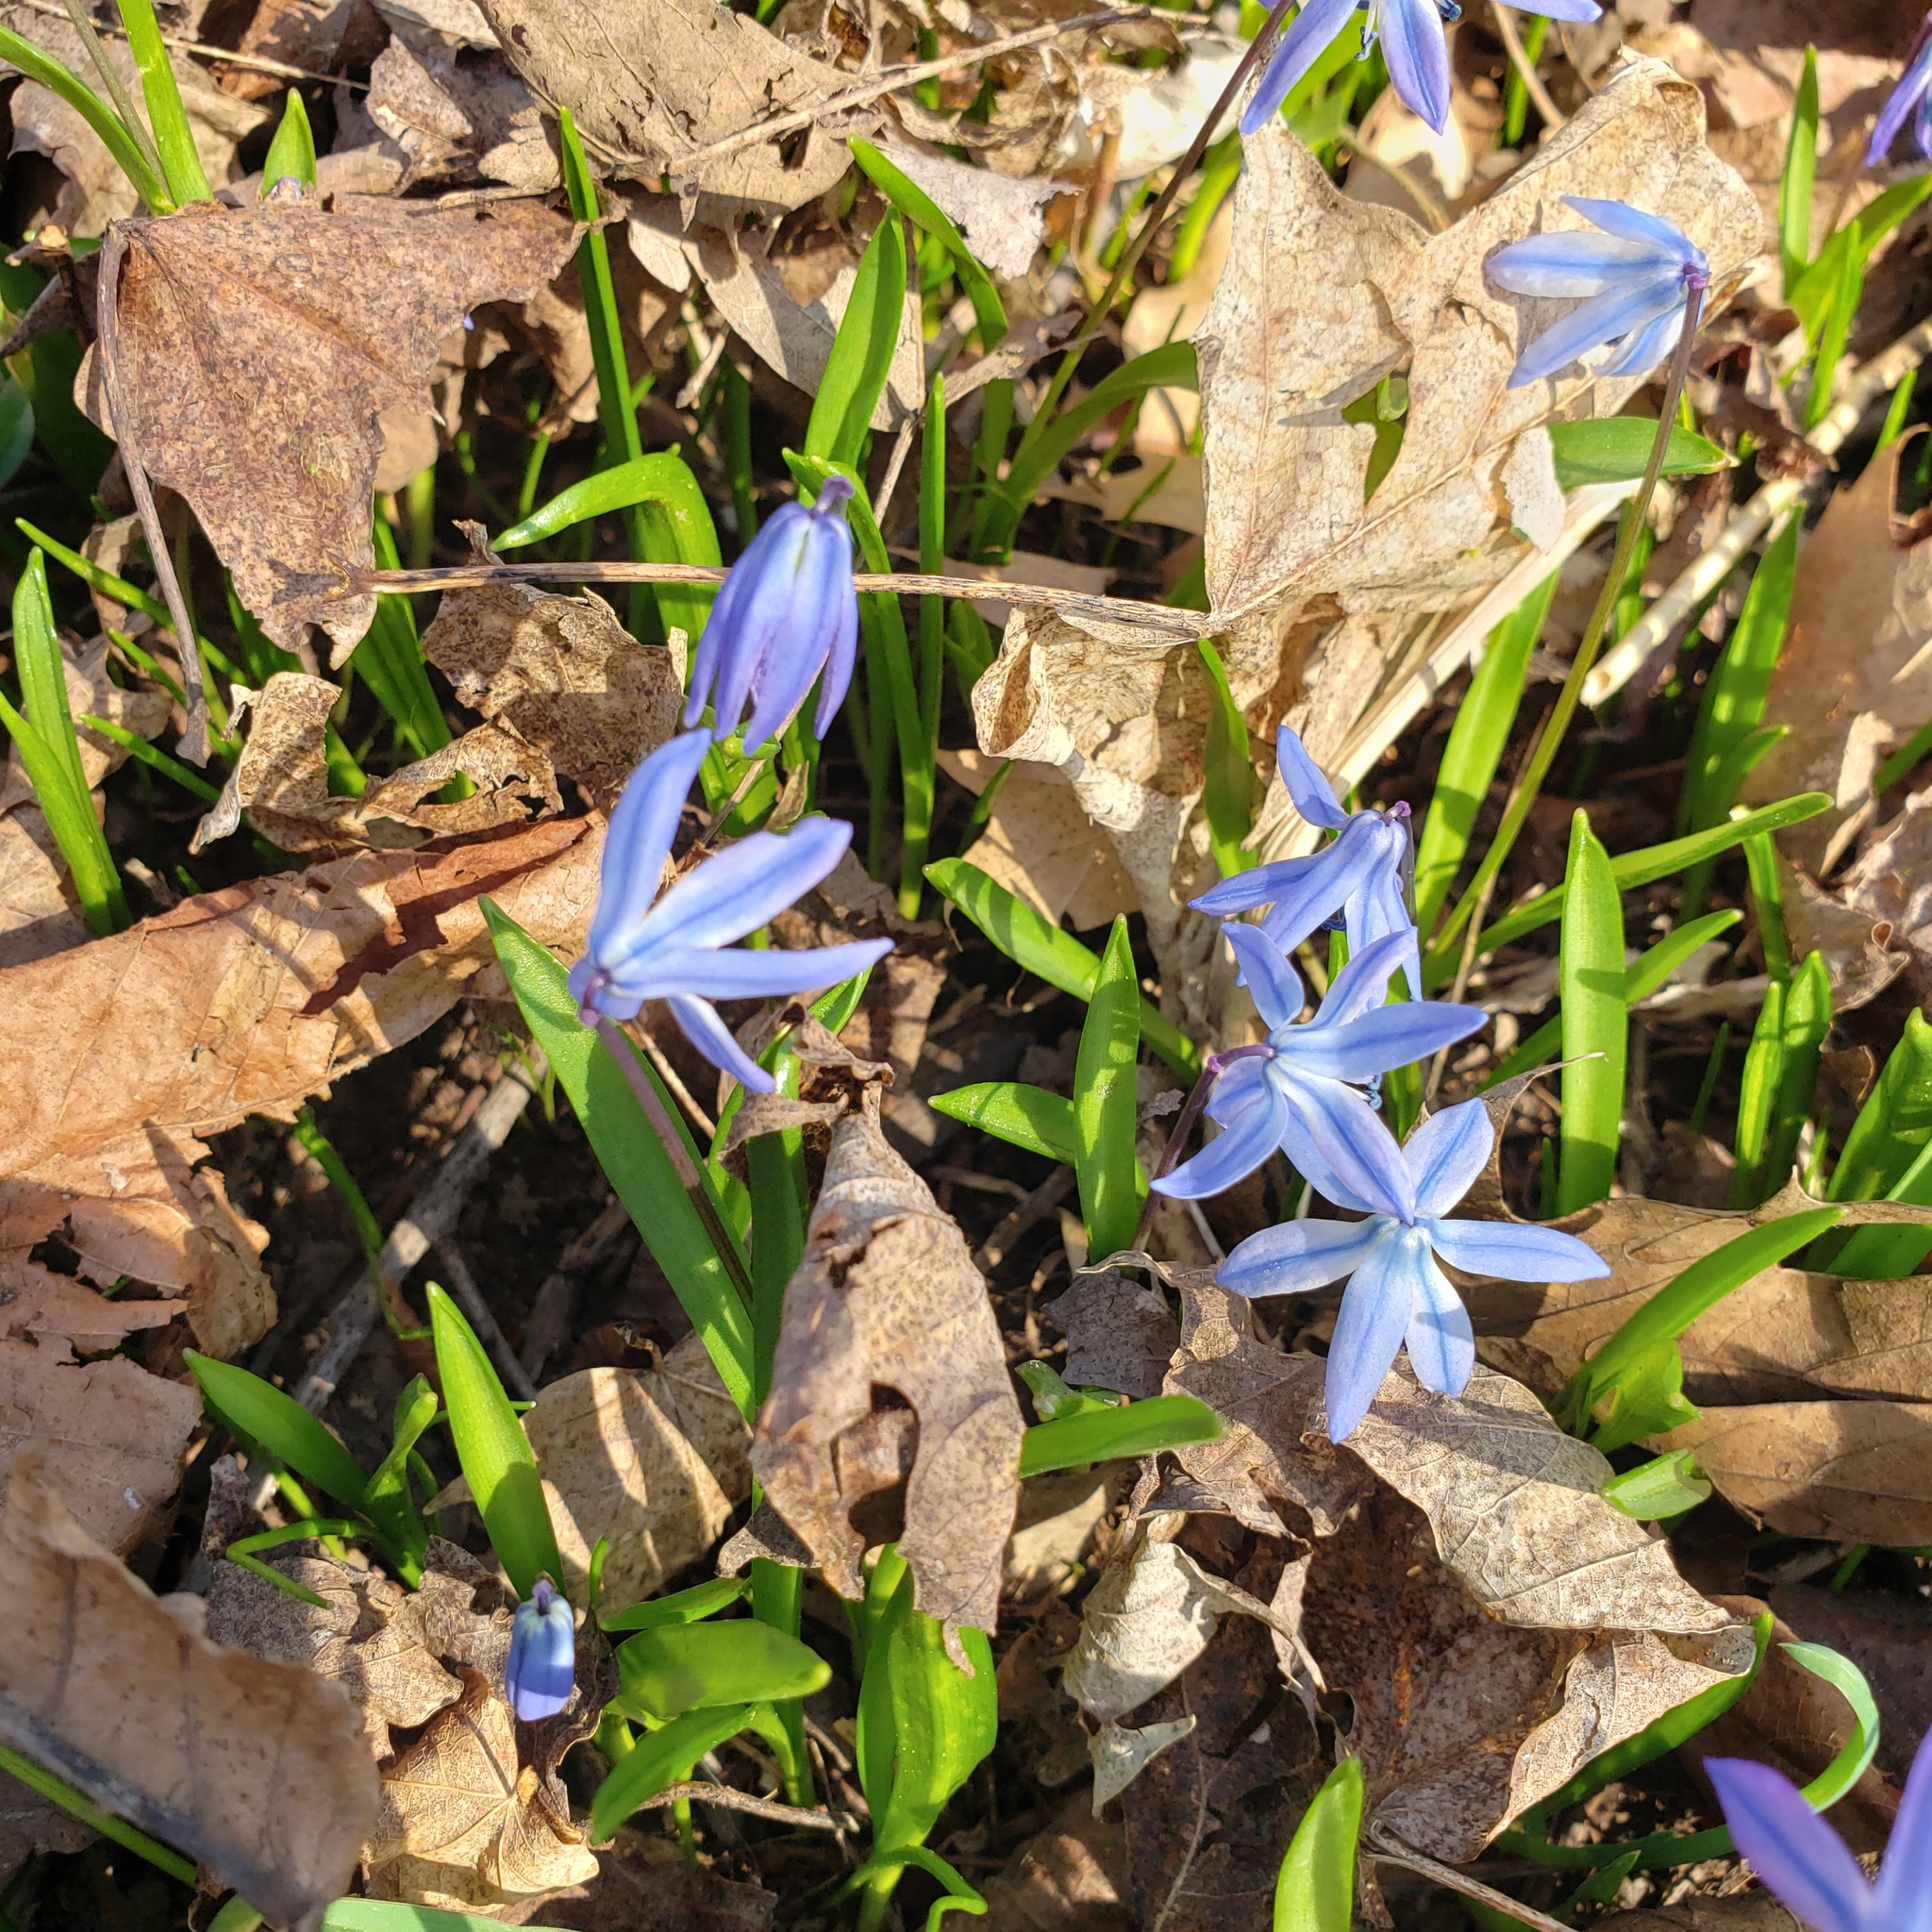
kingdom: Plantae
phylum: Tracheophyta
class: Liliopsida
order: Asparagales
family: Asparagaceae
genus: Scilla
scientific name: Scilla siberica
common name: Siberian squill
